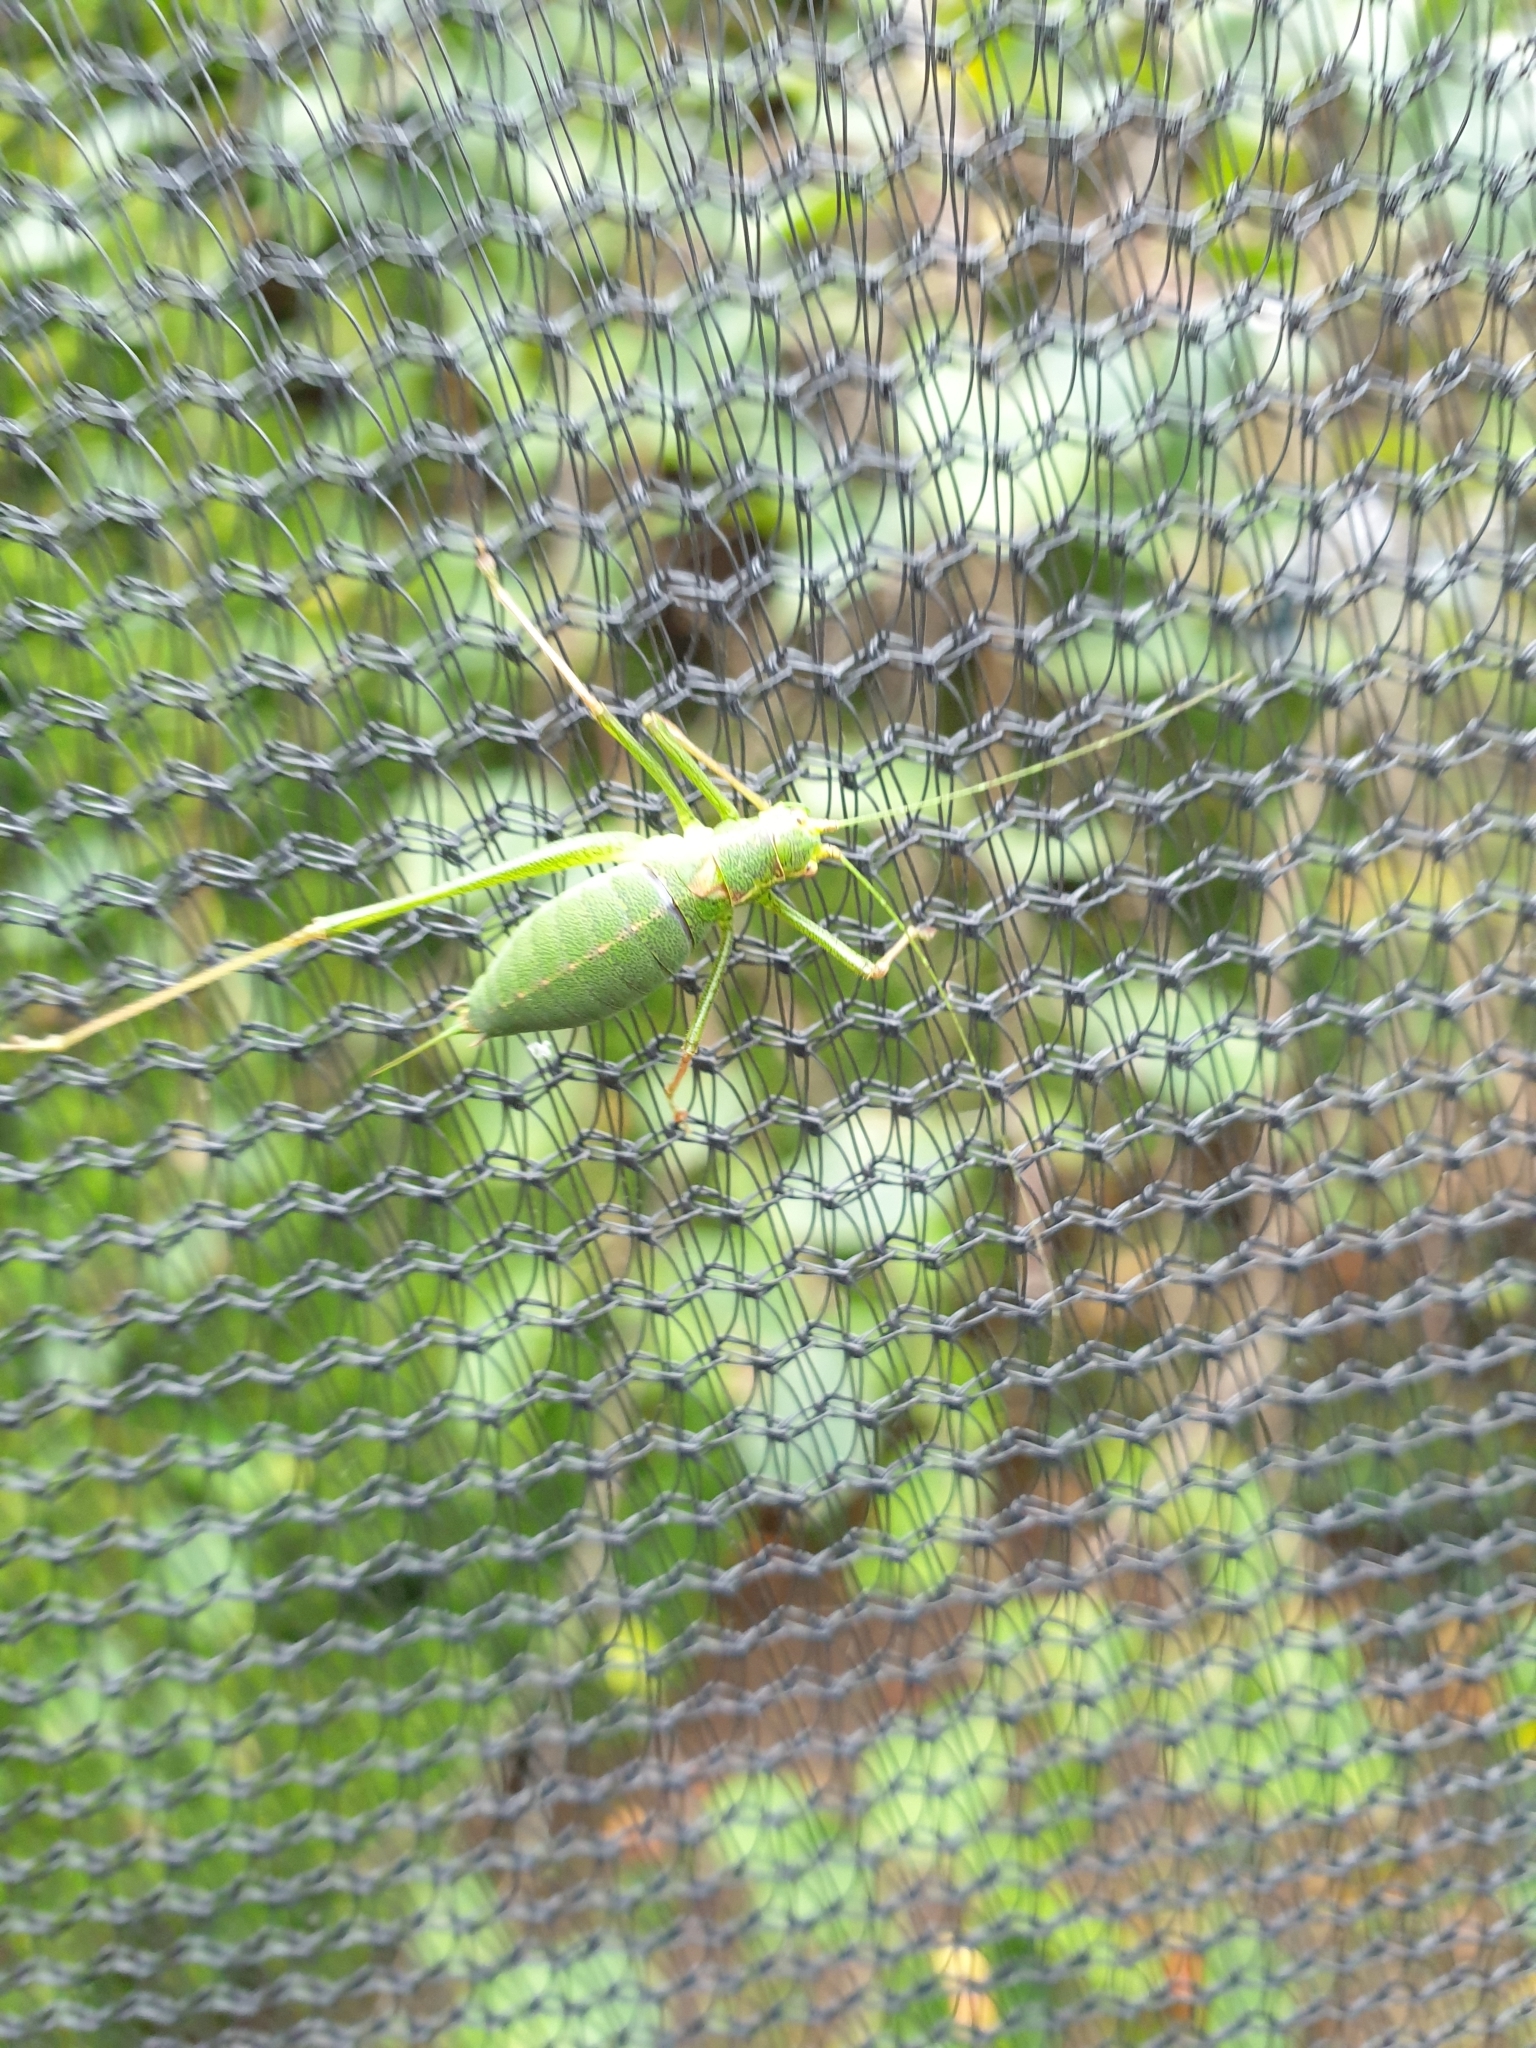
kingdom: Animalia
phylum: Arthropoda
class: Insecta
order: Orthoptera
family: Tettigoniidae
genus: Leptophyes
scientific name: Leptophyes punctatissima
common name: Speckled bush-cricket
